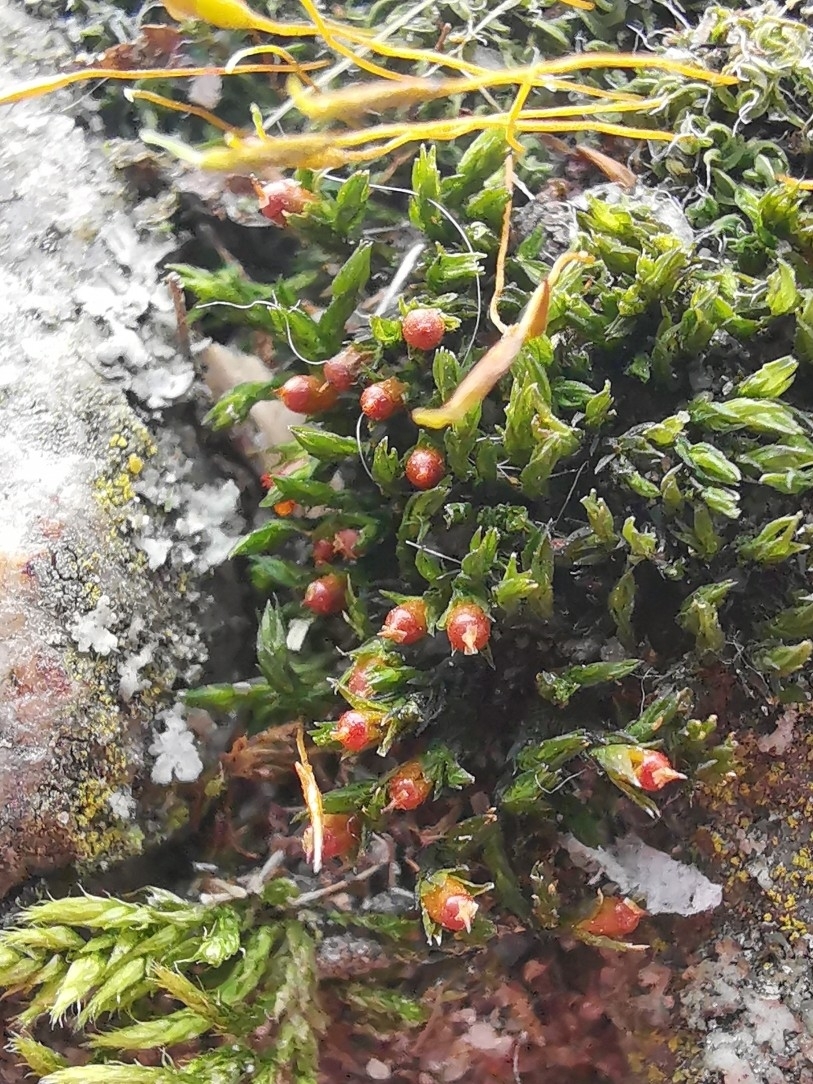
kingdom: Plantae
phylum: Bryophyta
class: Bryopsida
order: Grimmiales
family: Grimmiaceae
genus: Schistidium
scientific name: Schistidium crassipilum
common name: Thickpoint bloom moss
